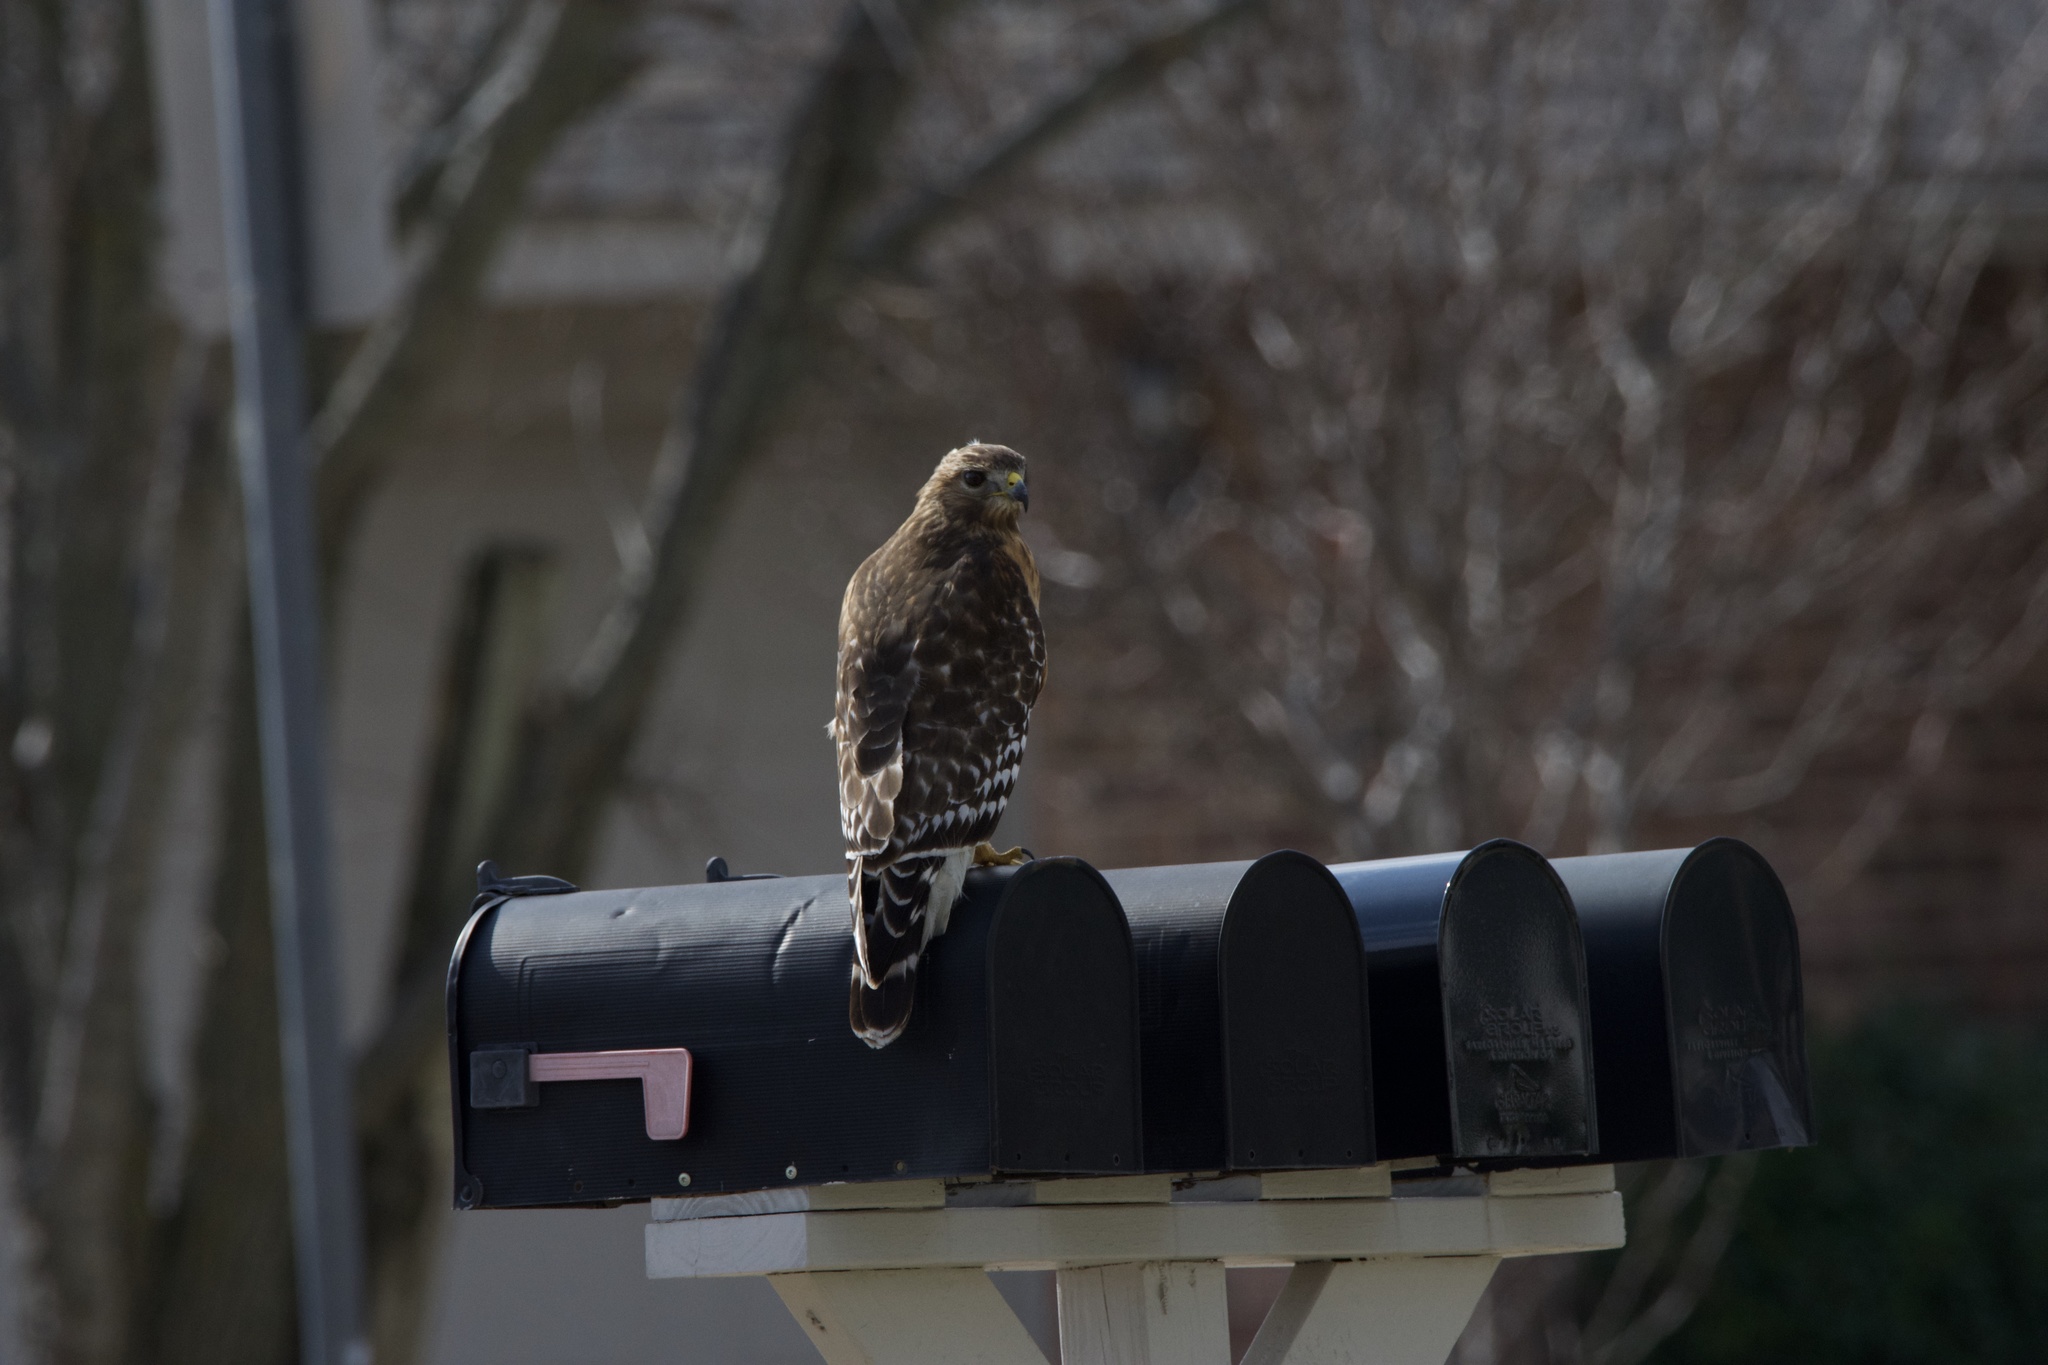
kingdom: Animalia
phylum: Chordata
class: Aves
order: Accipitriformes
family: Accipitridae
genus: Buteo
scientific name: Buteo lineatus
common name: Red-shouldered hawk
